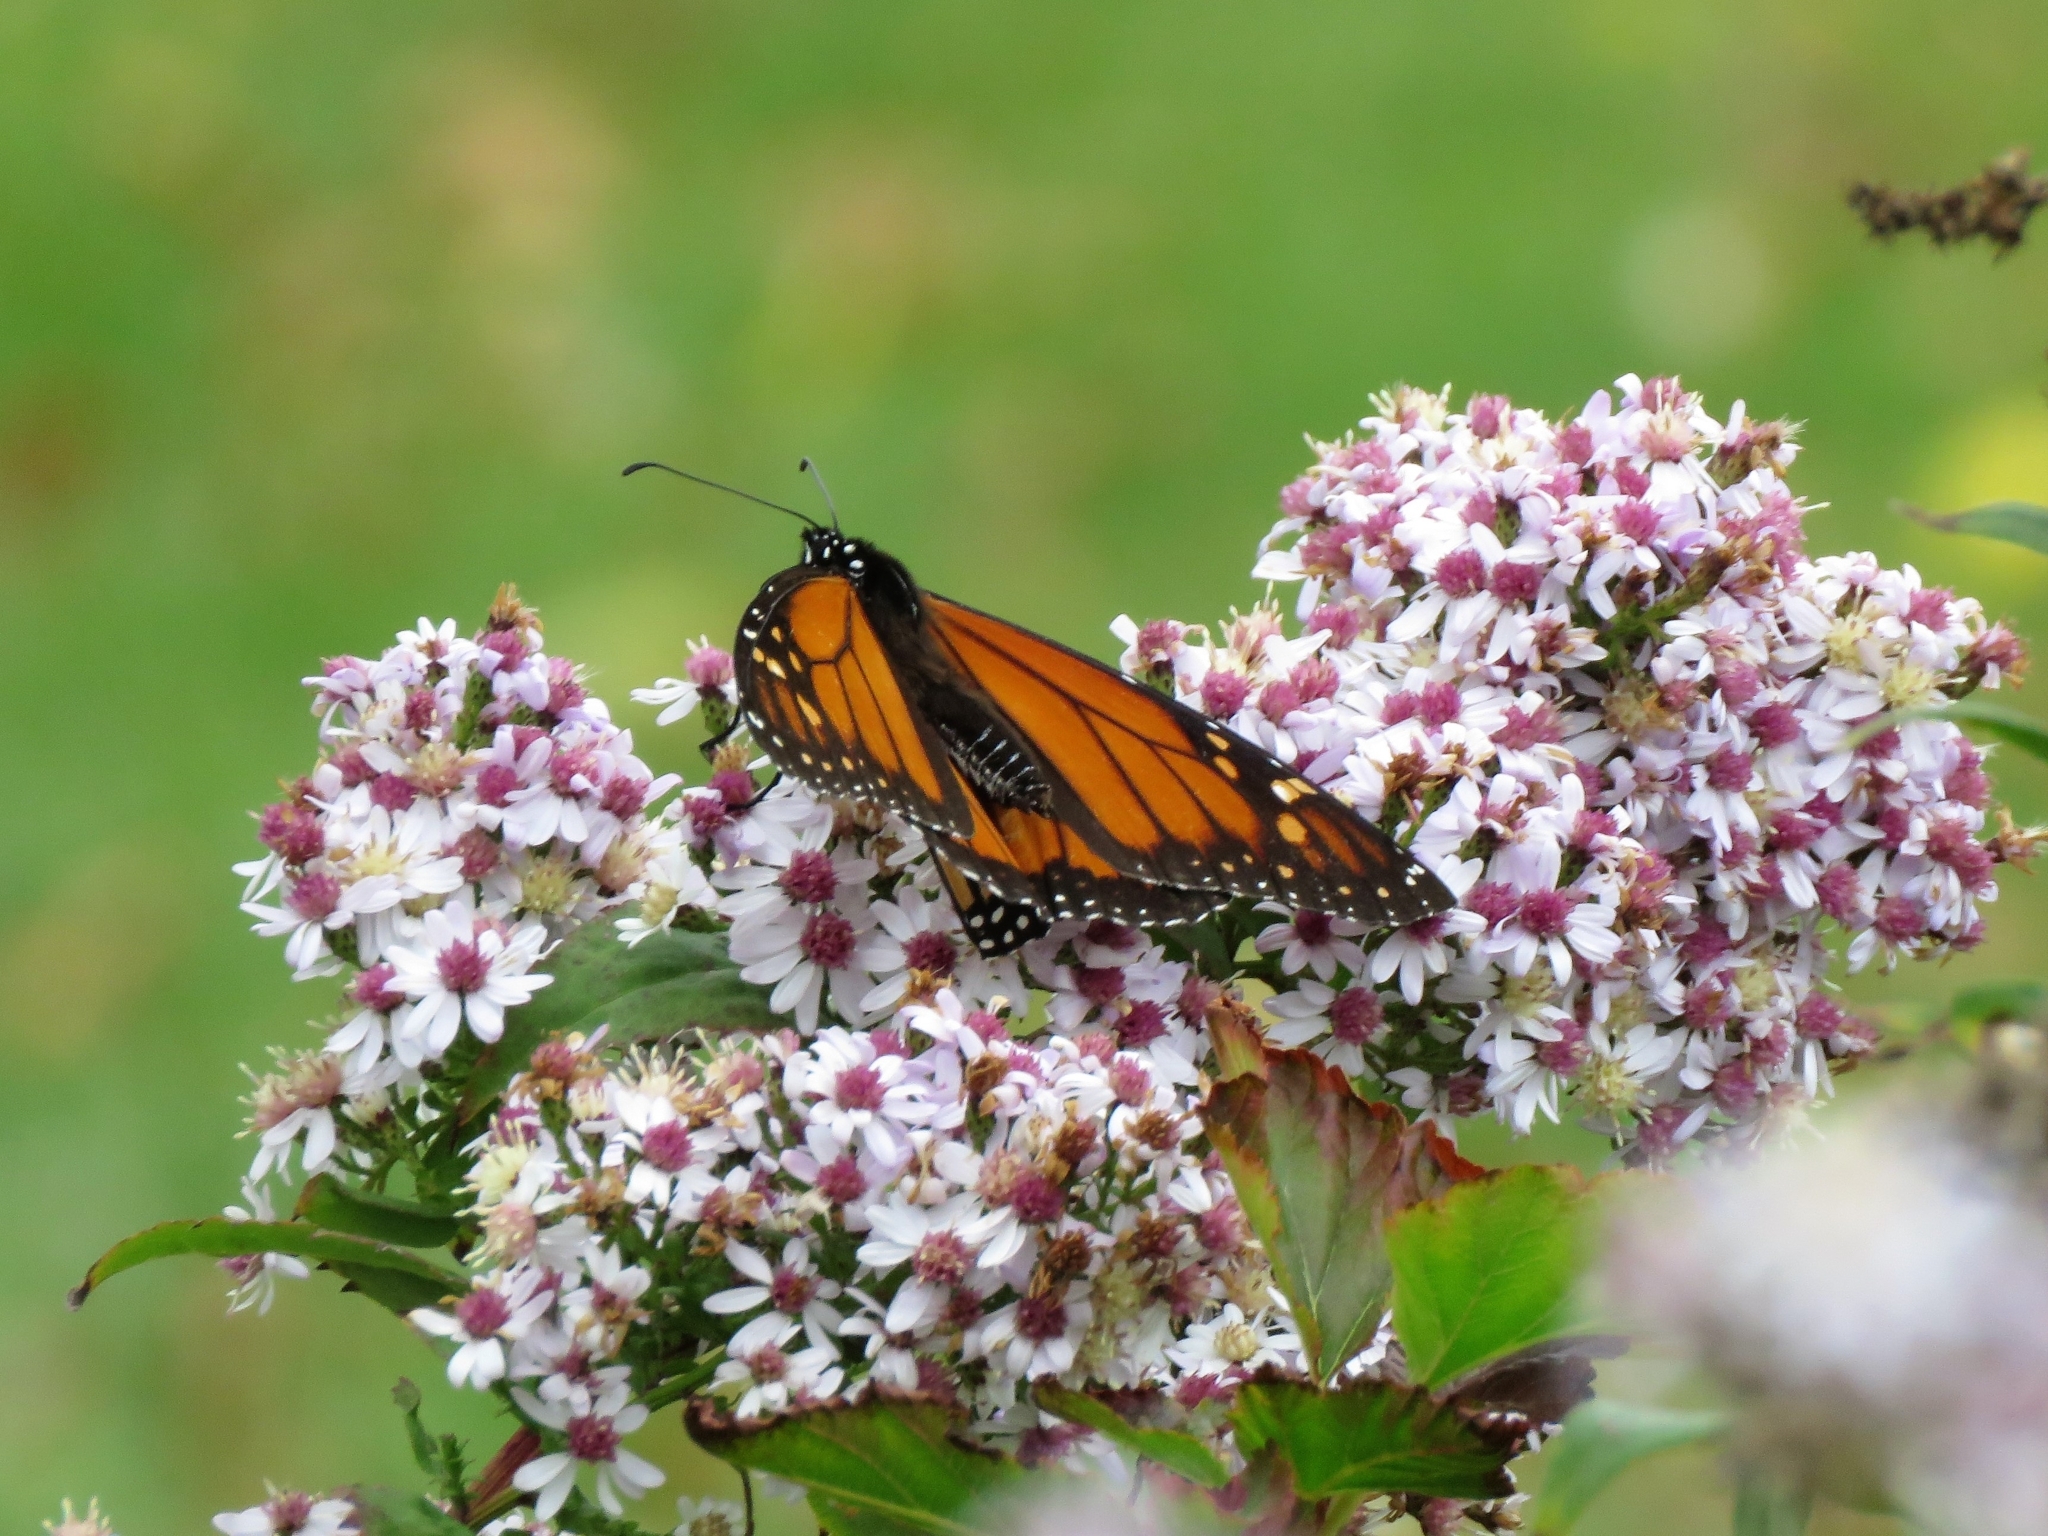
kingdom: Animalia
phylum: Arthropoda
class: Insecta
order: Lepidoptera
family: Nymphalidae
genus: Danaus
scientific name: Danaus plexippus
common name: Monarch
